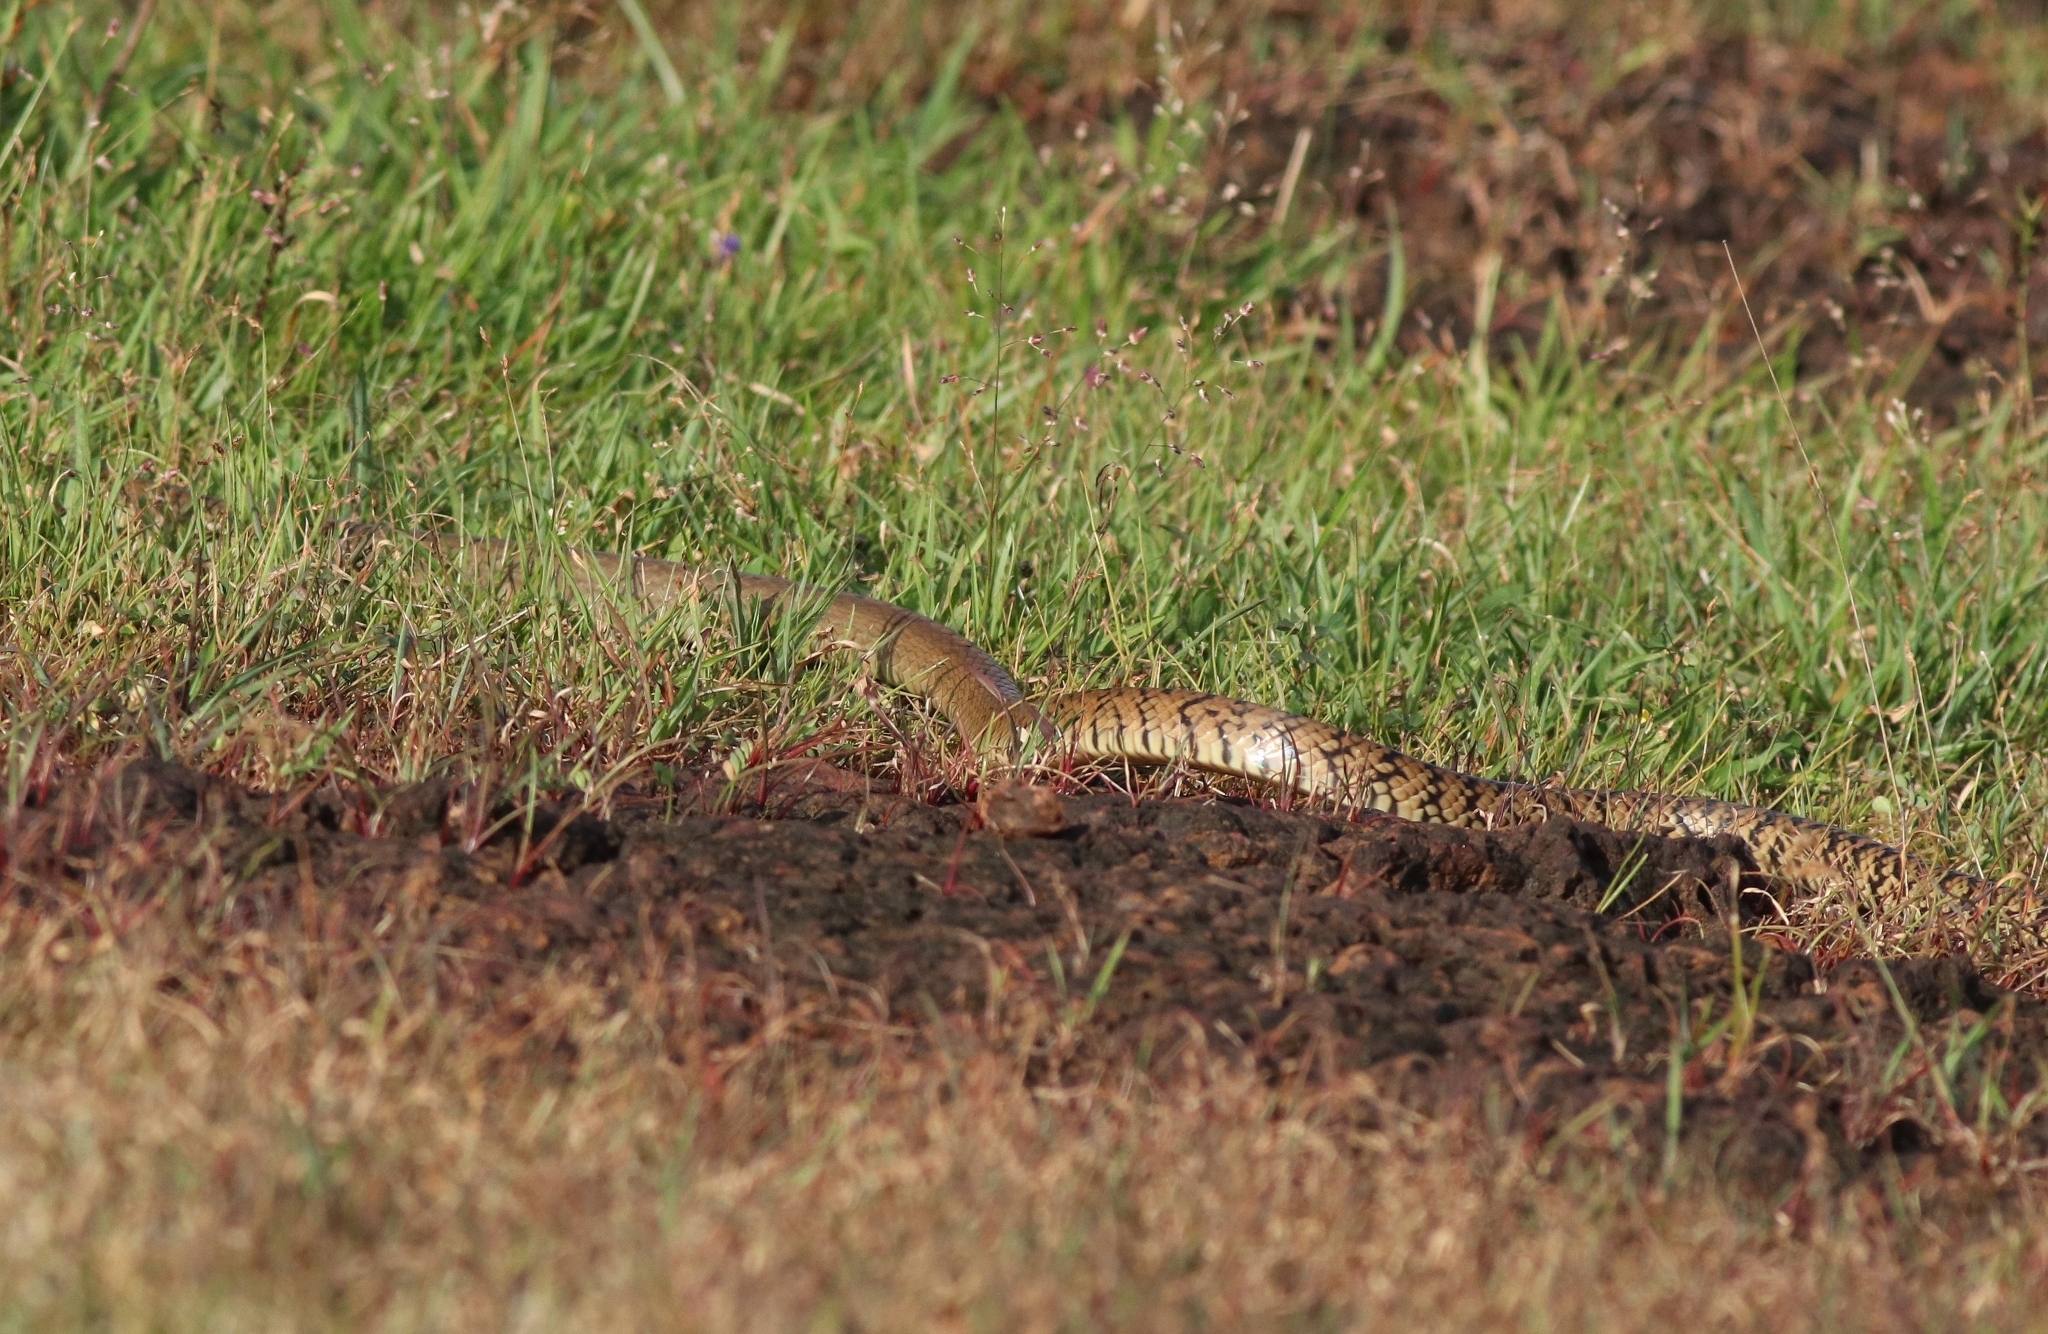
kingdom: Animalia
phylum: Chordata
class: Squamata
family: Colubridae
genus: Ptyas
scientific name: Ptyas mucosa
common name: Oriental ratsnake
